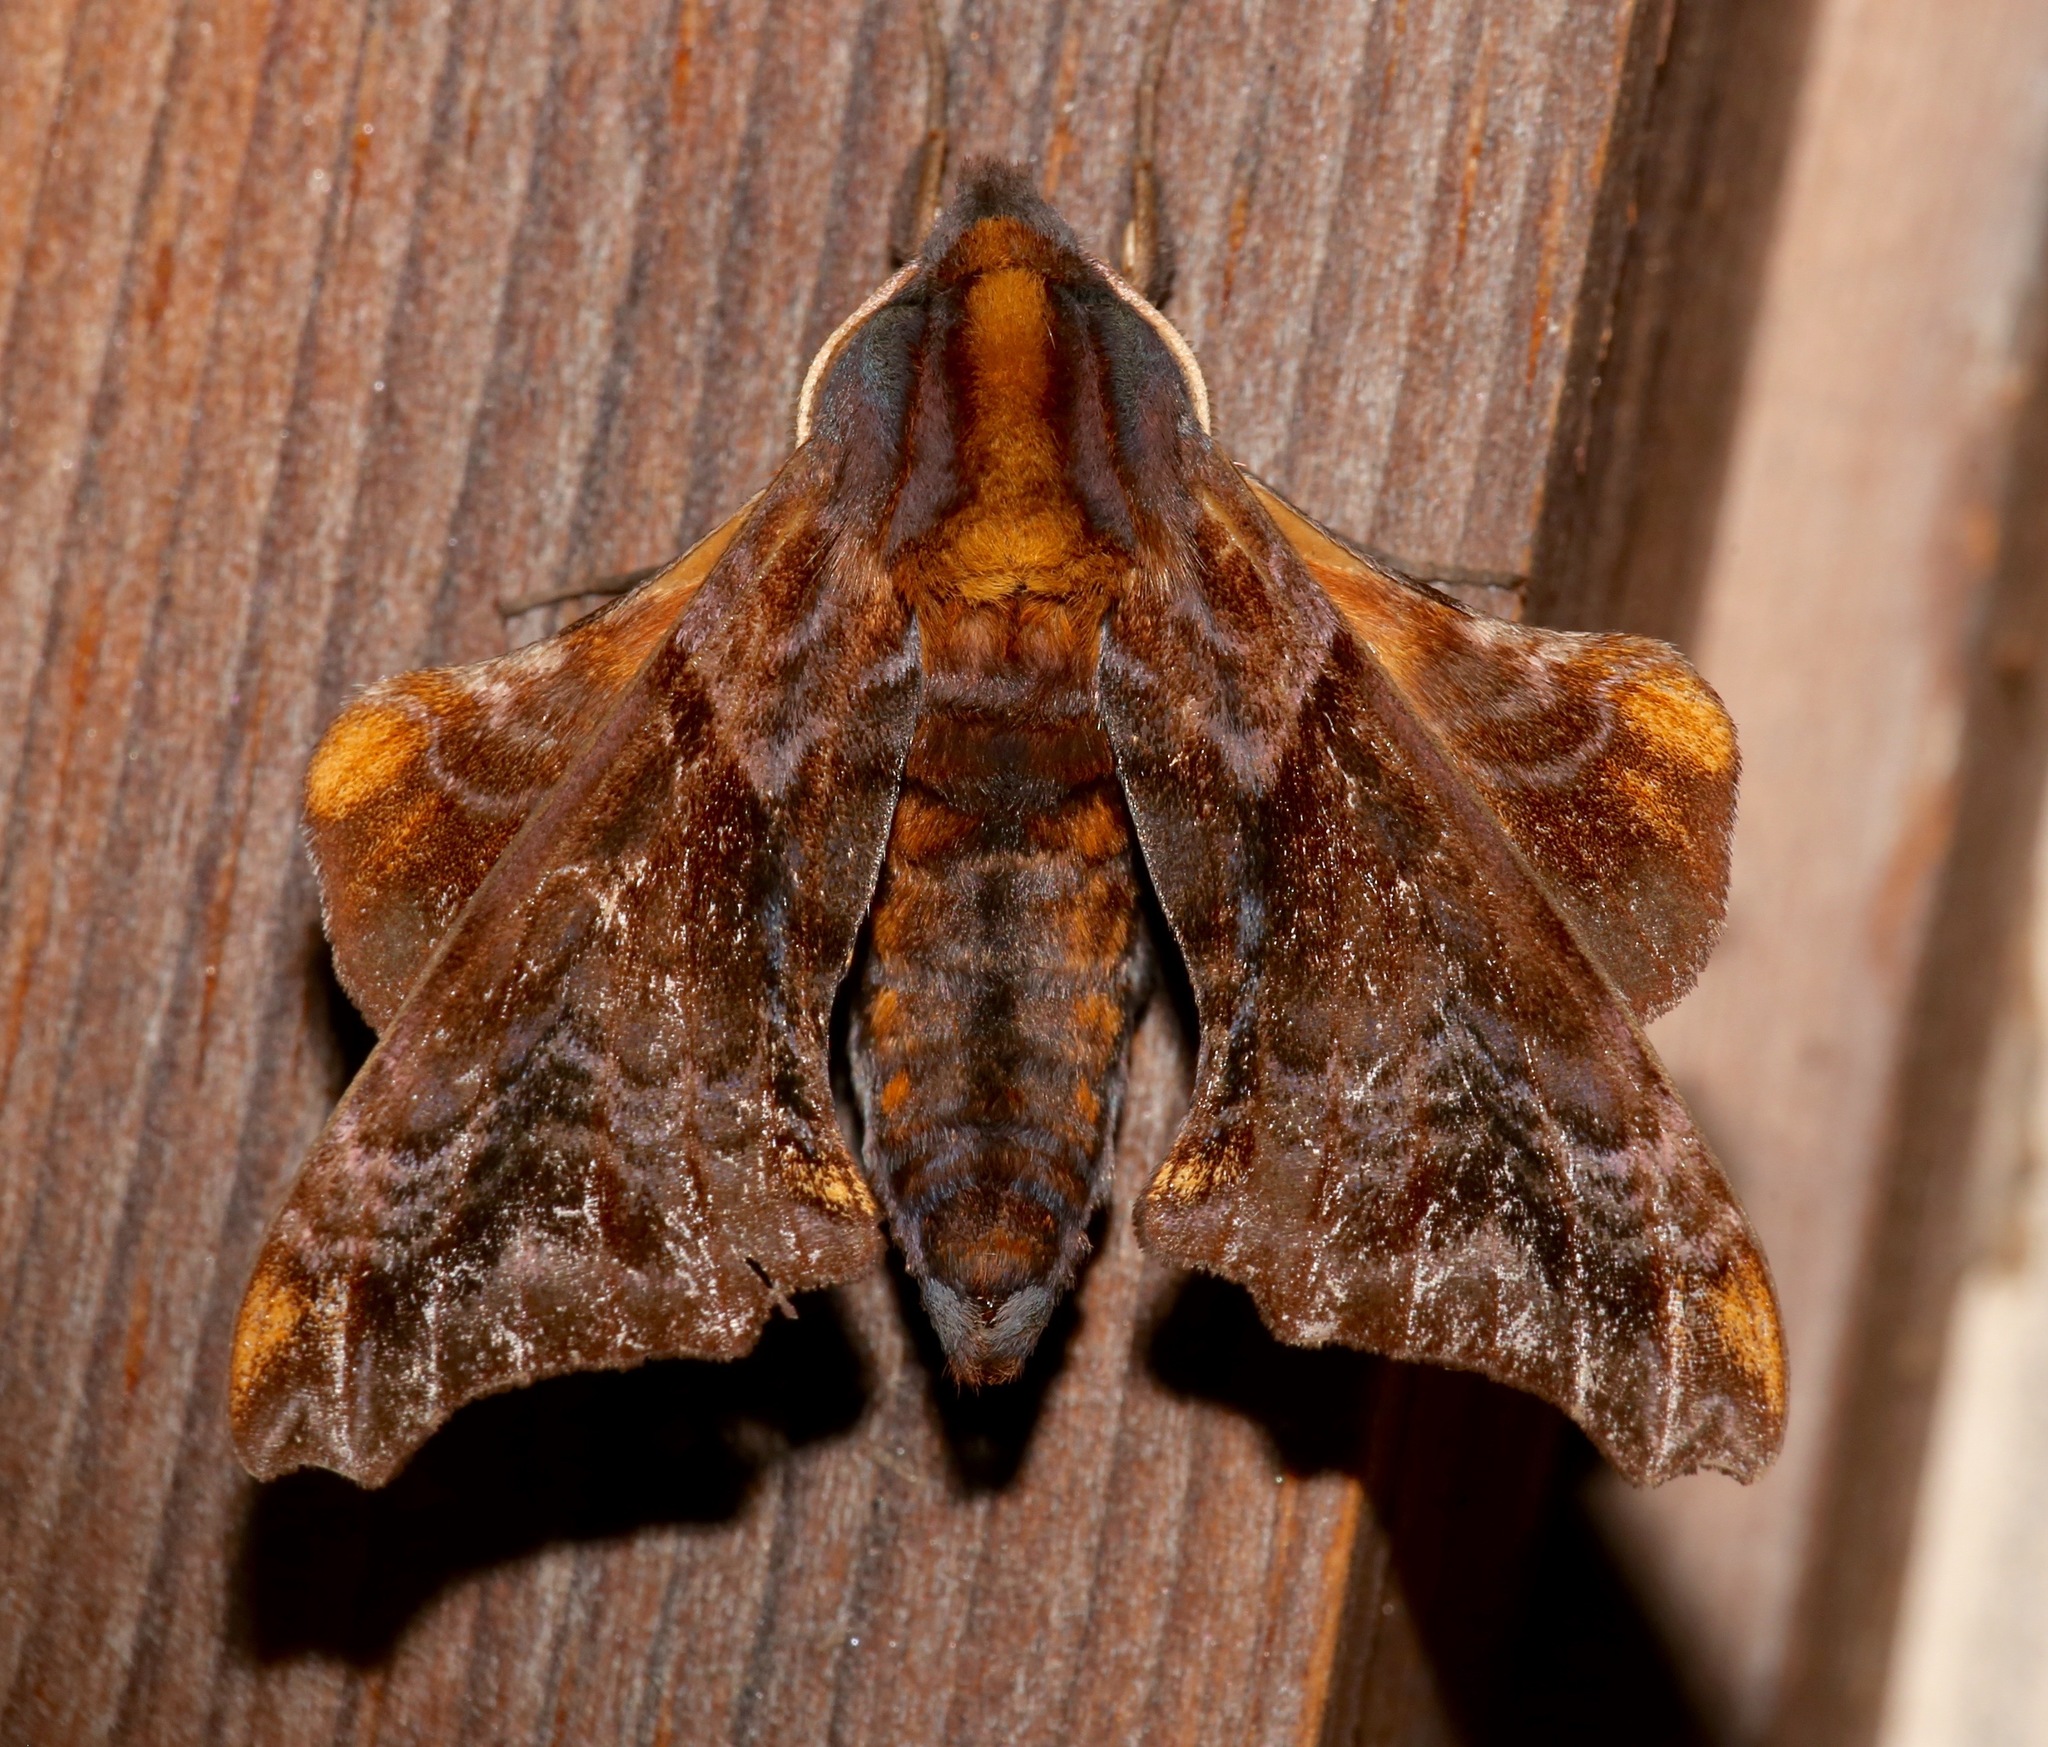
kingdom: Animalia
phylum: Arthropoda
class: Insecta
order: Lepidoptera
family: Sphingidae
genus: Paonias
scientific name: Paonias myops
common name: Small-eyed sphinx
